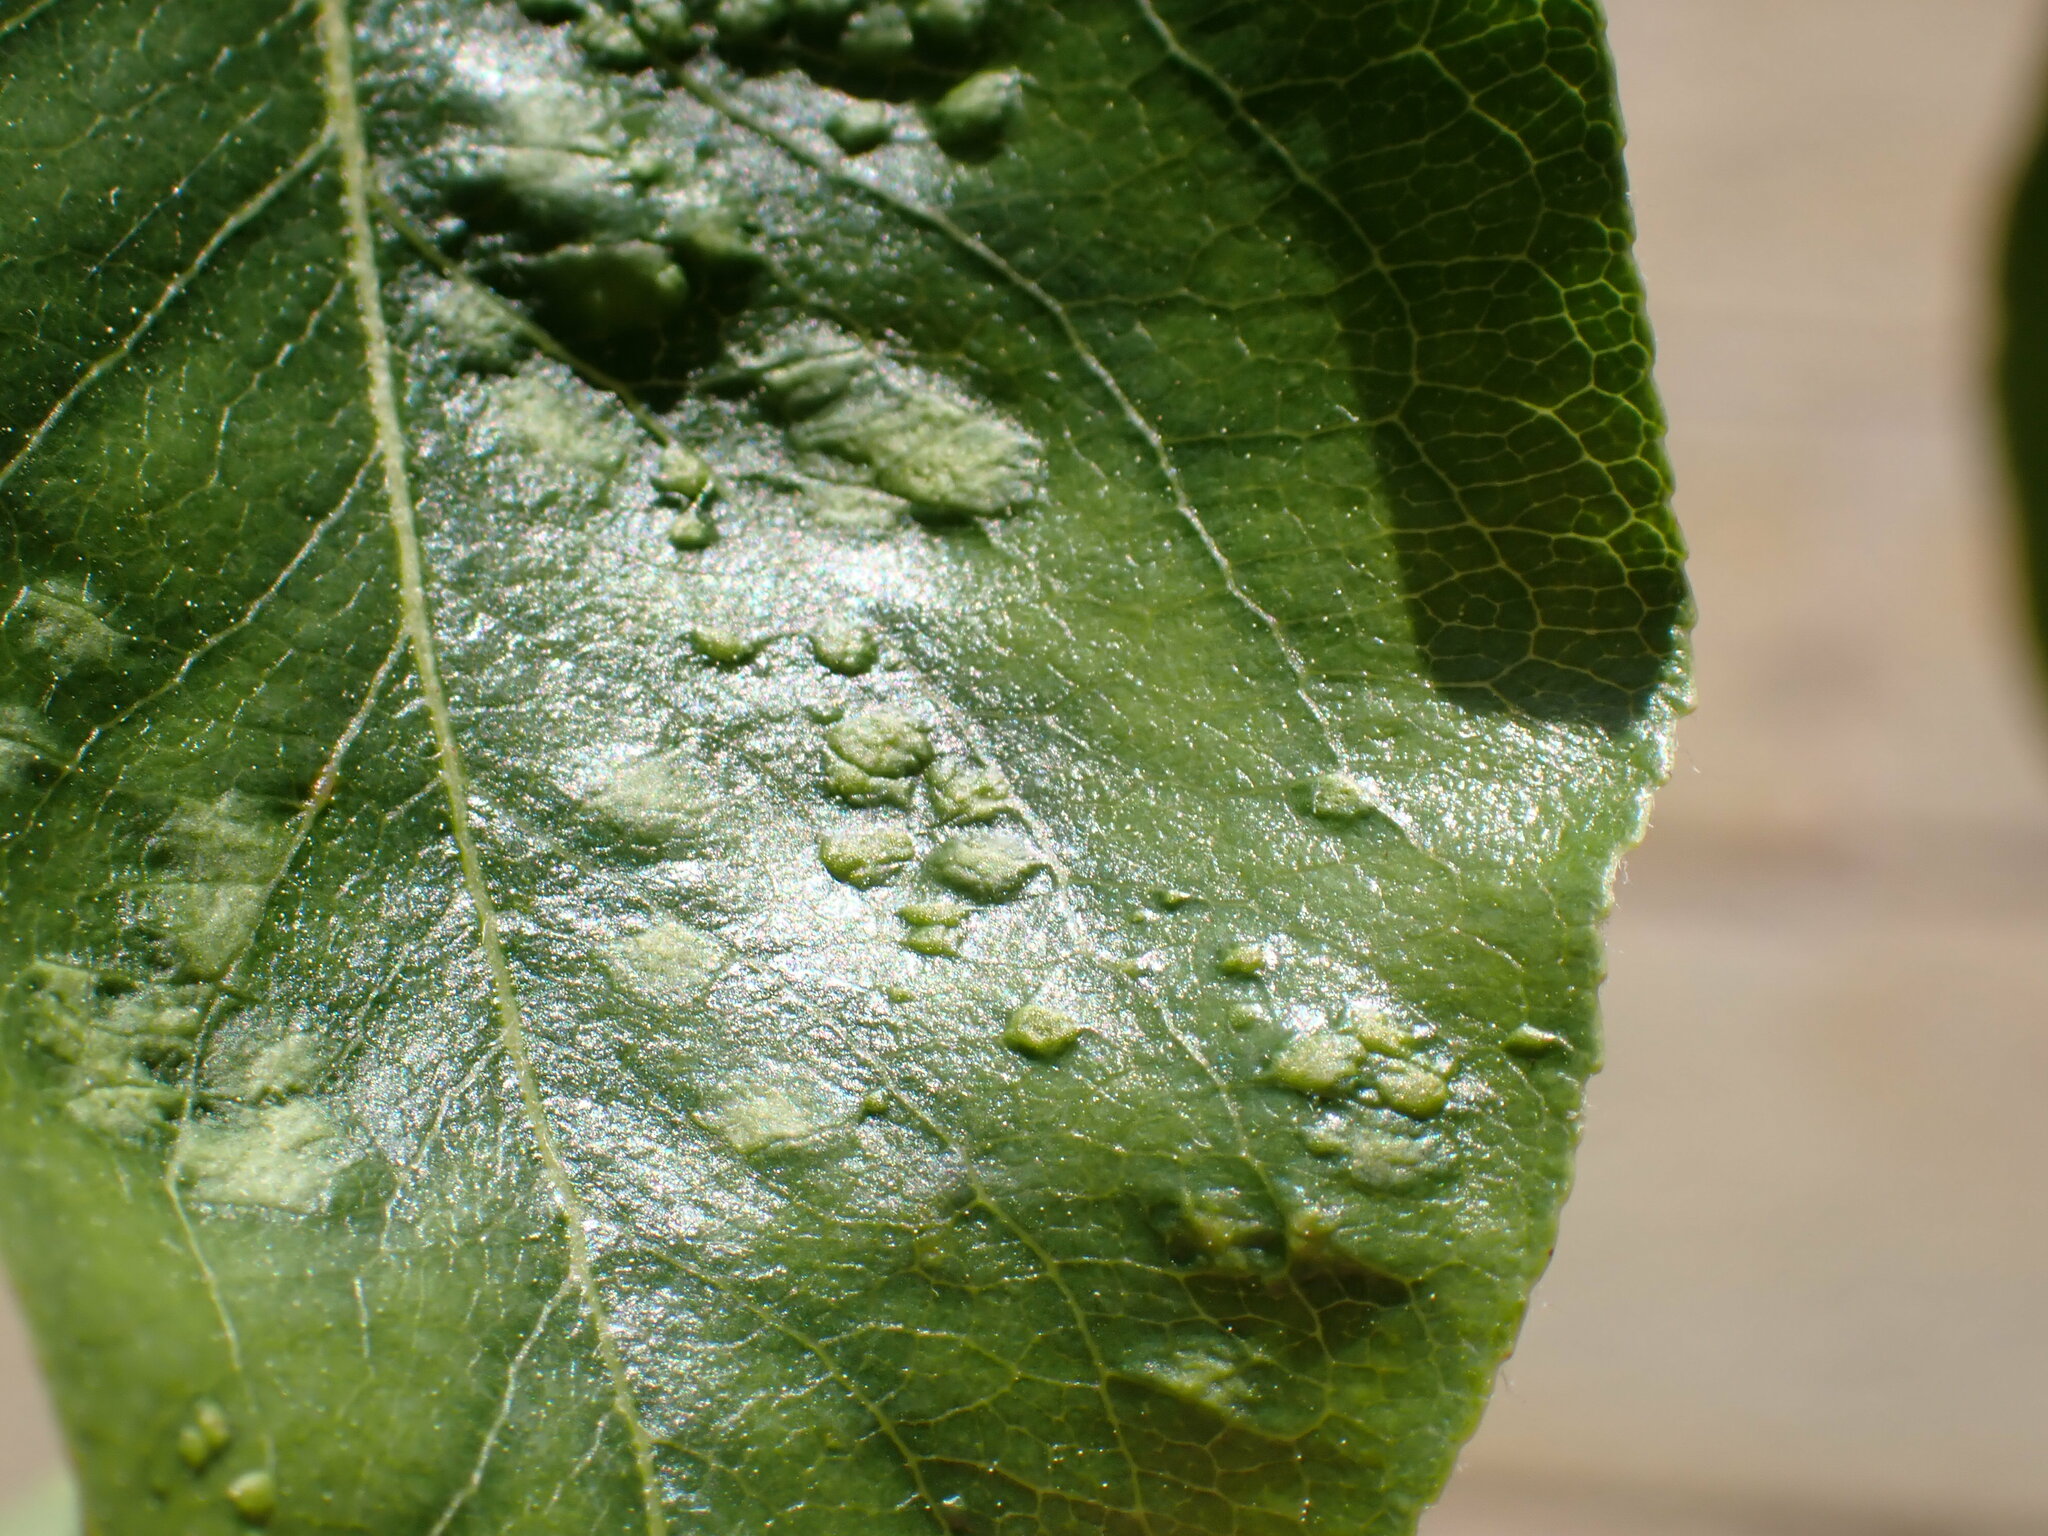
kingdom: Animalia
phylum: Arthropoda
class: Arachnida
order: Trombidiformes
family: Eriophyidae
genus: Eriophyes
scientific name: Eriophyes pyri
